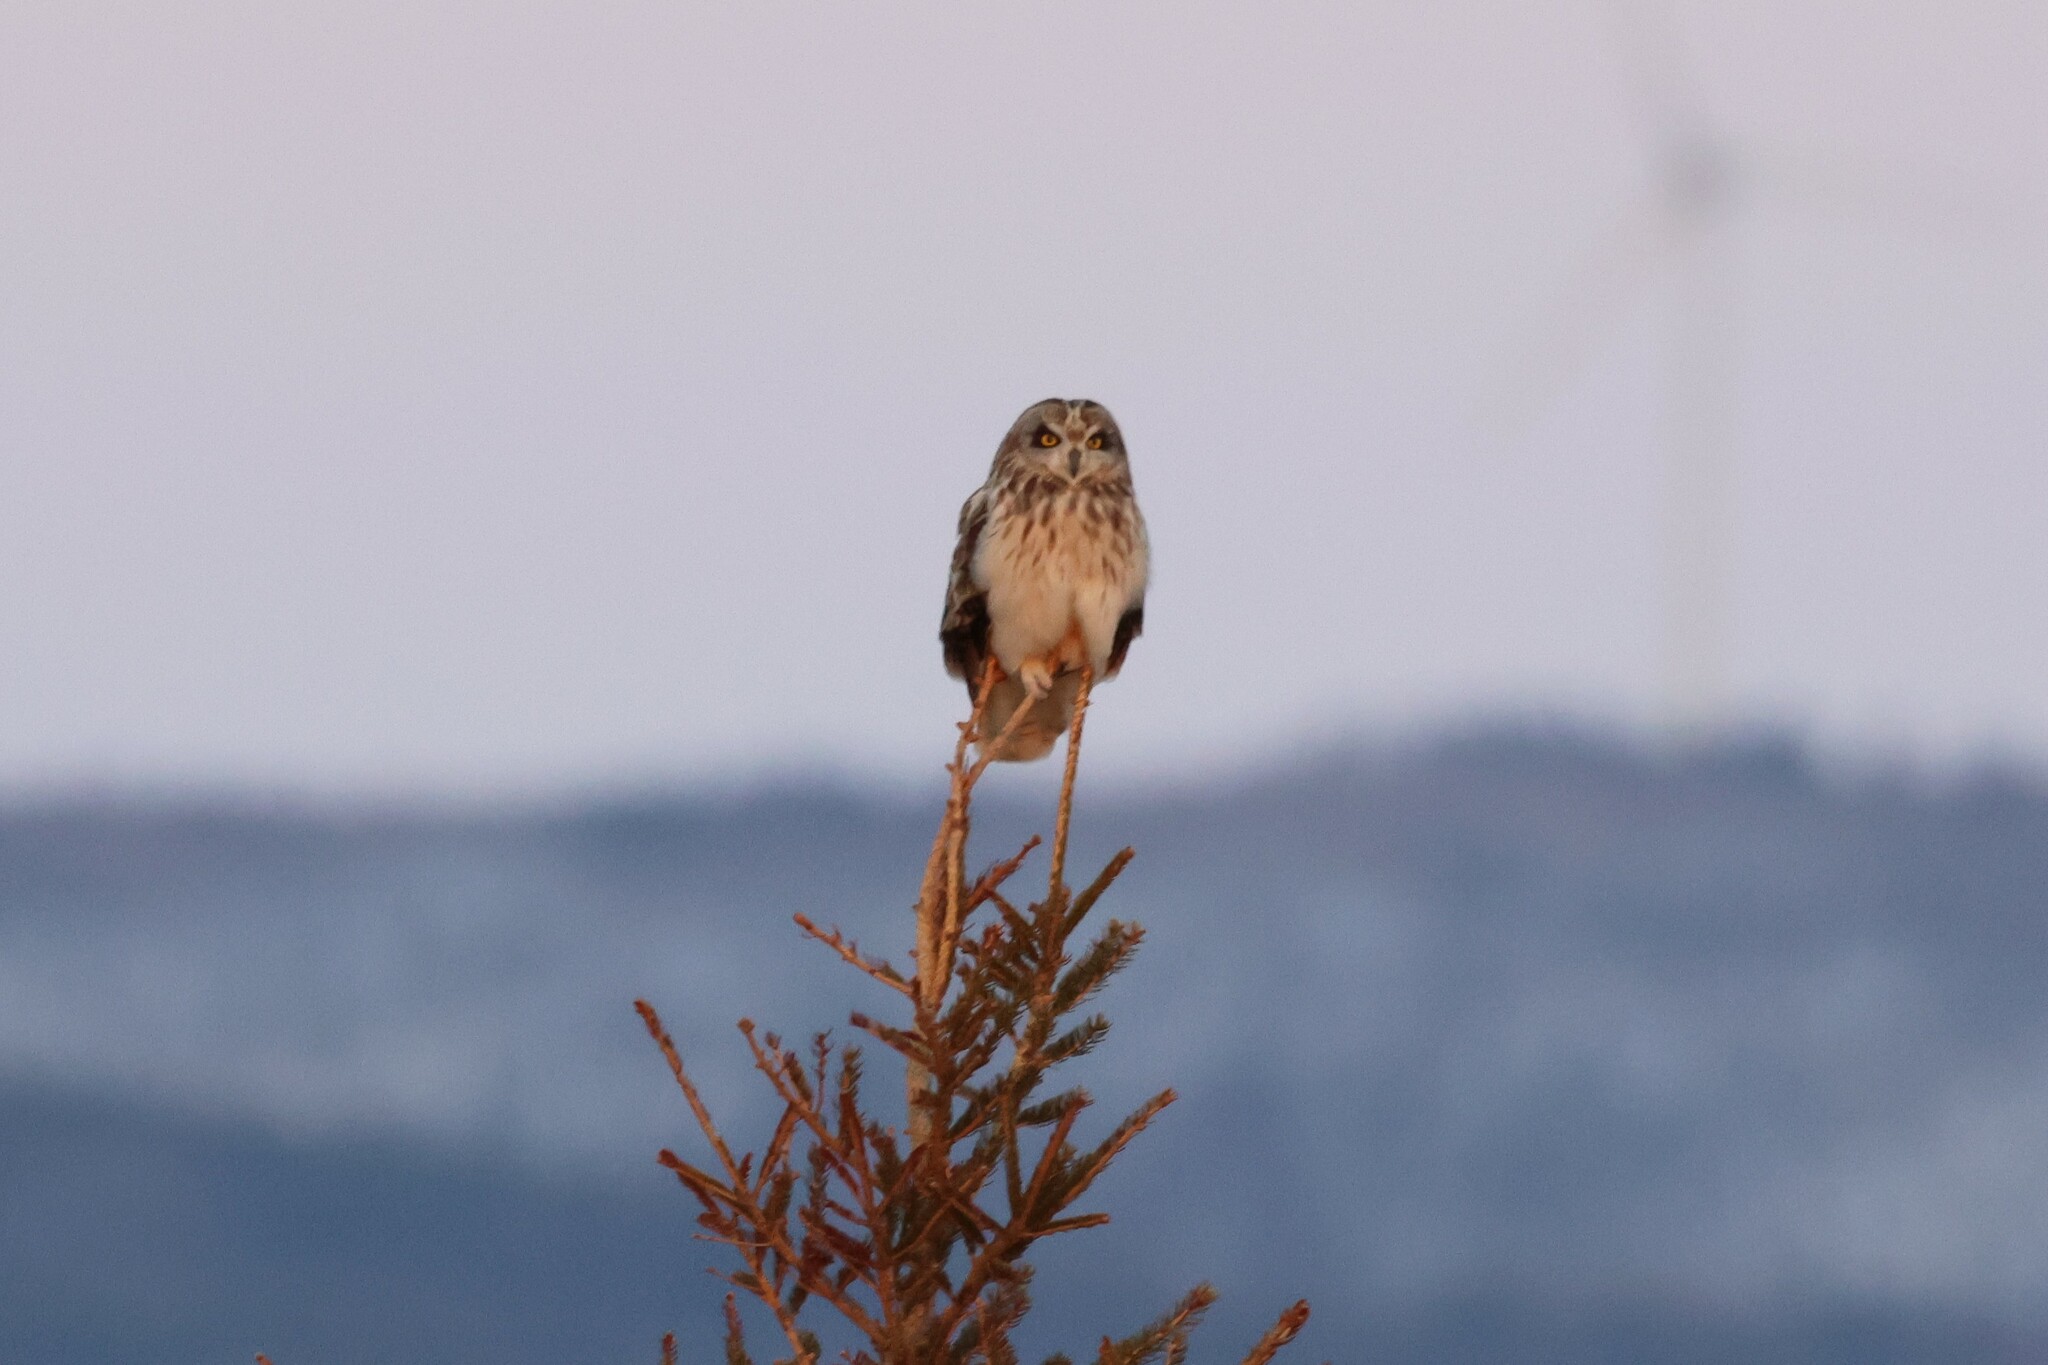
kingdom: Animalia
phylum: Chordata
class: Aves
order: Strigiformes
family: Strigidae
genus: Asio
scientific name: Asio flammeus
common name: Short-eared owl
